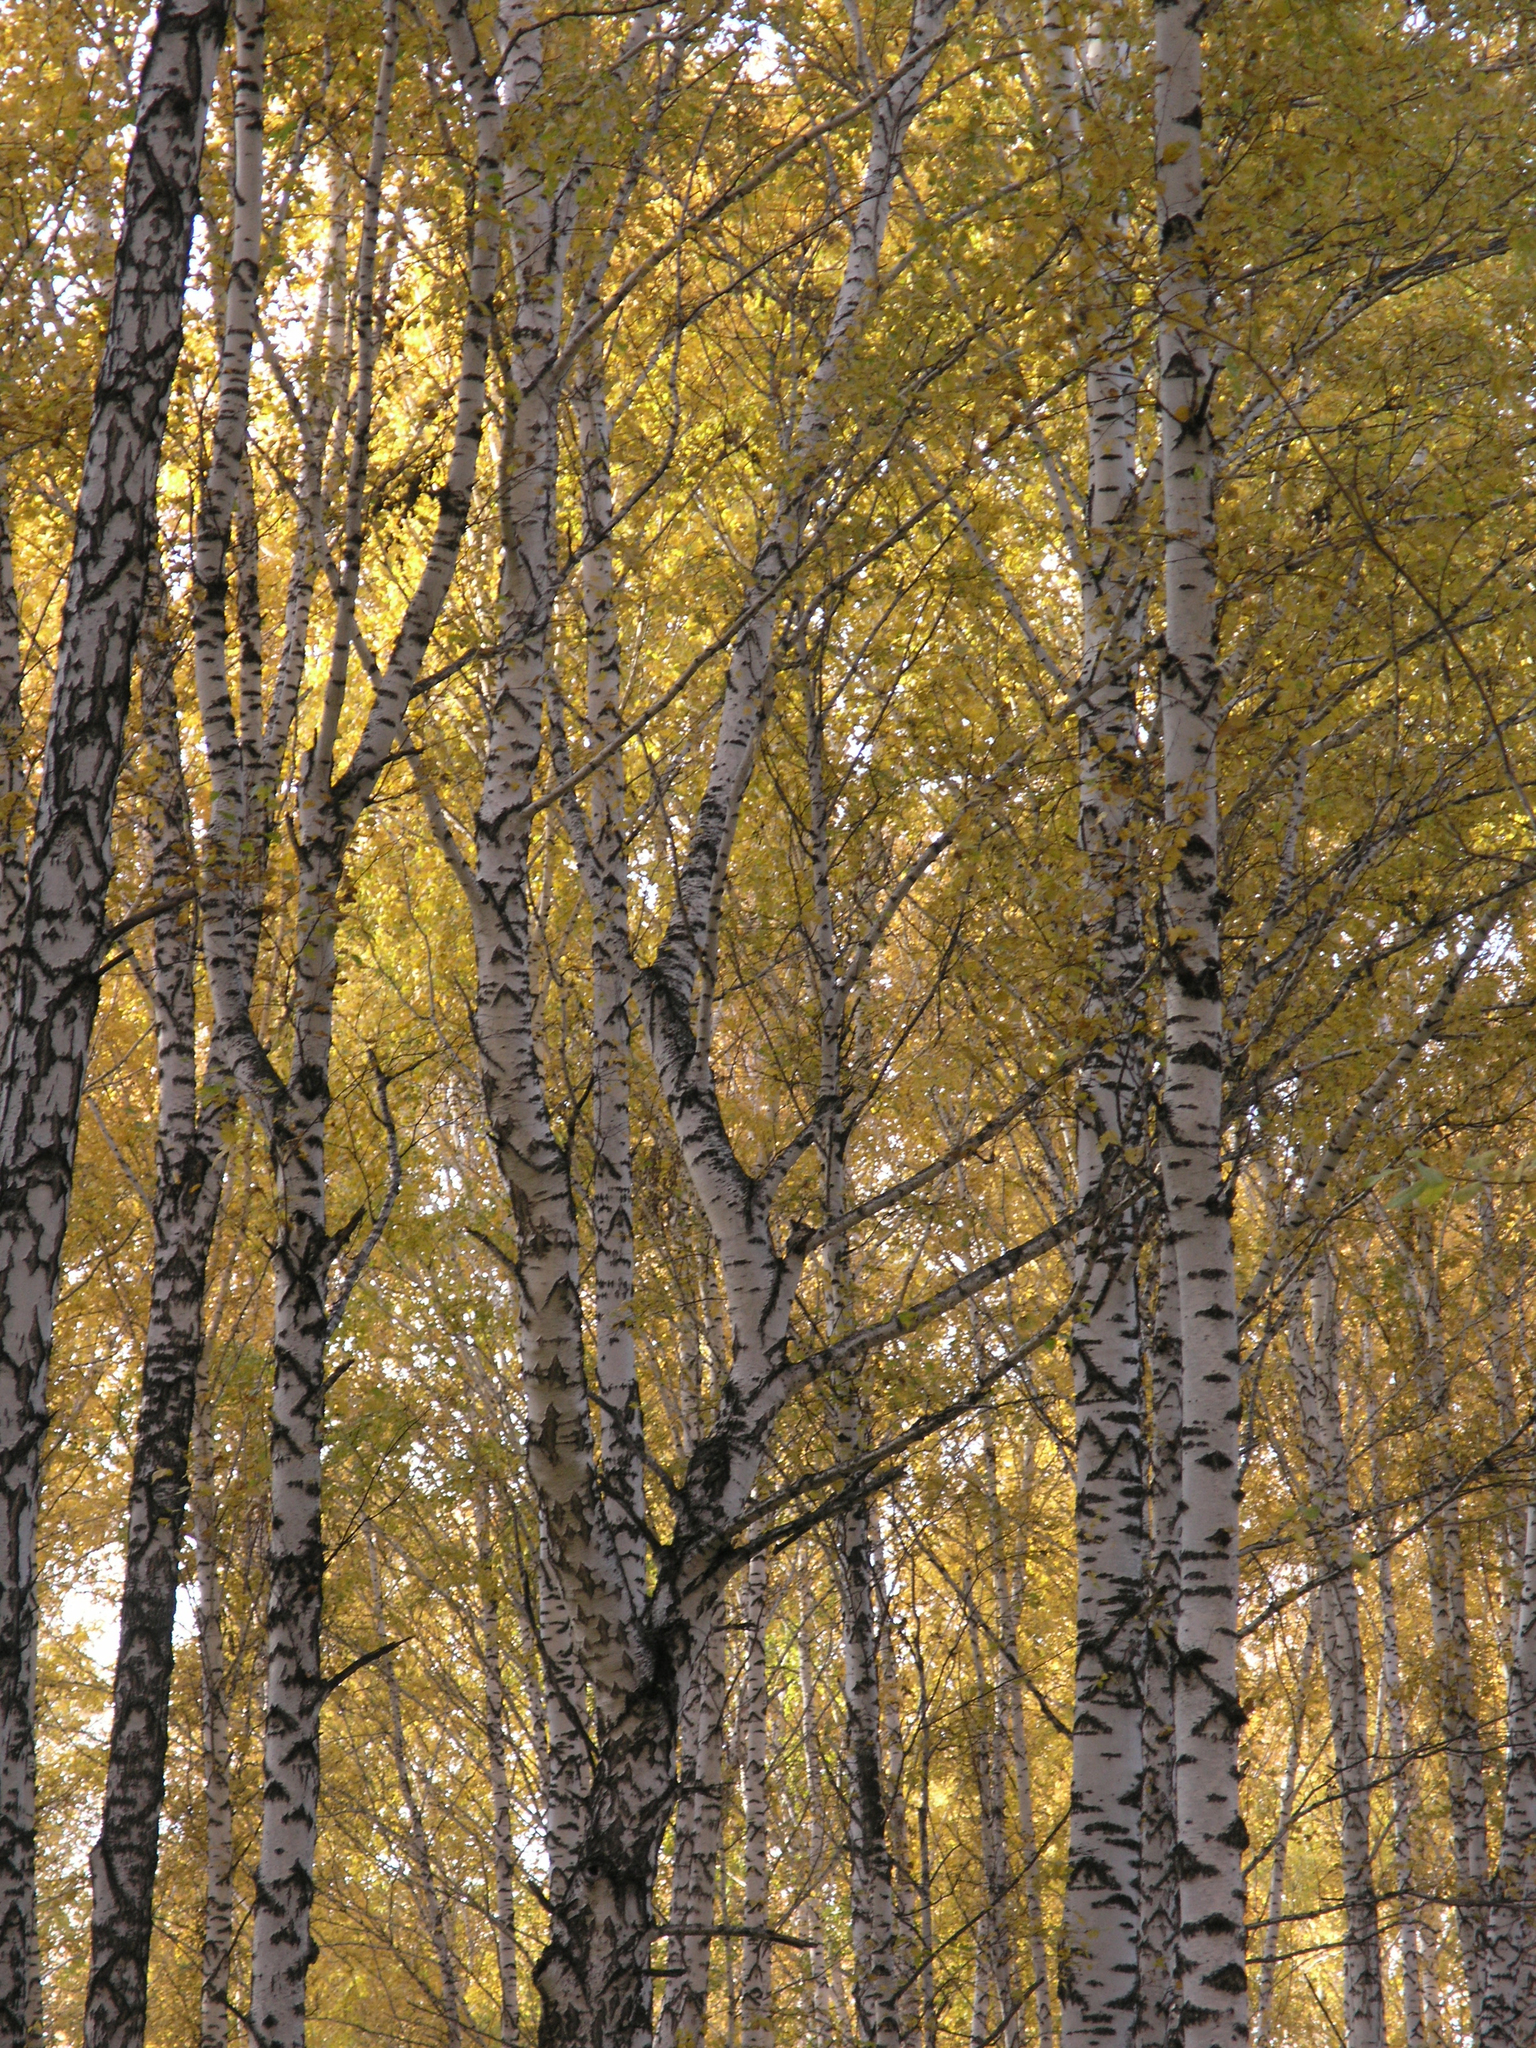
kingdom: Plantae
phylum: Tracheophyta
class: Magnoliopsida
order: Fagales
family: Betulaceae
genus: Betula
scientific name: Betula pendula
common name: Silver birch
